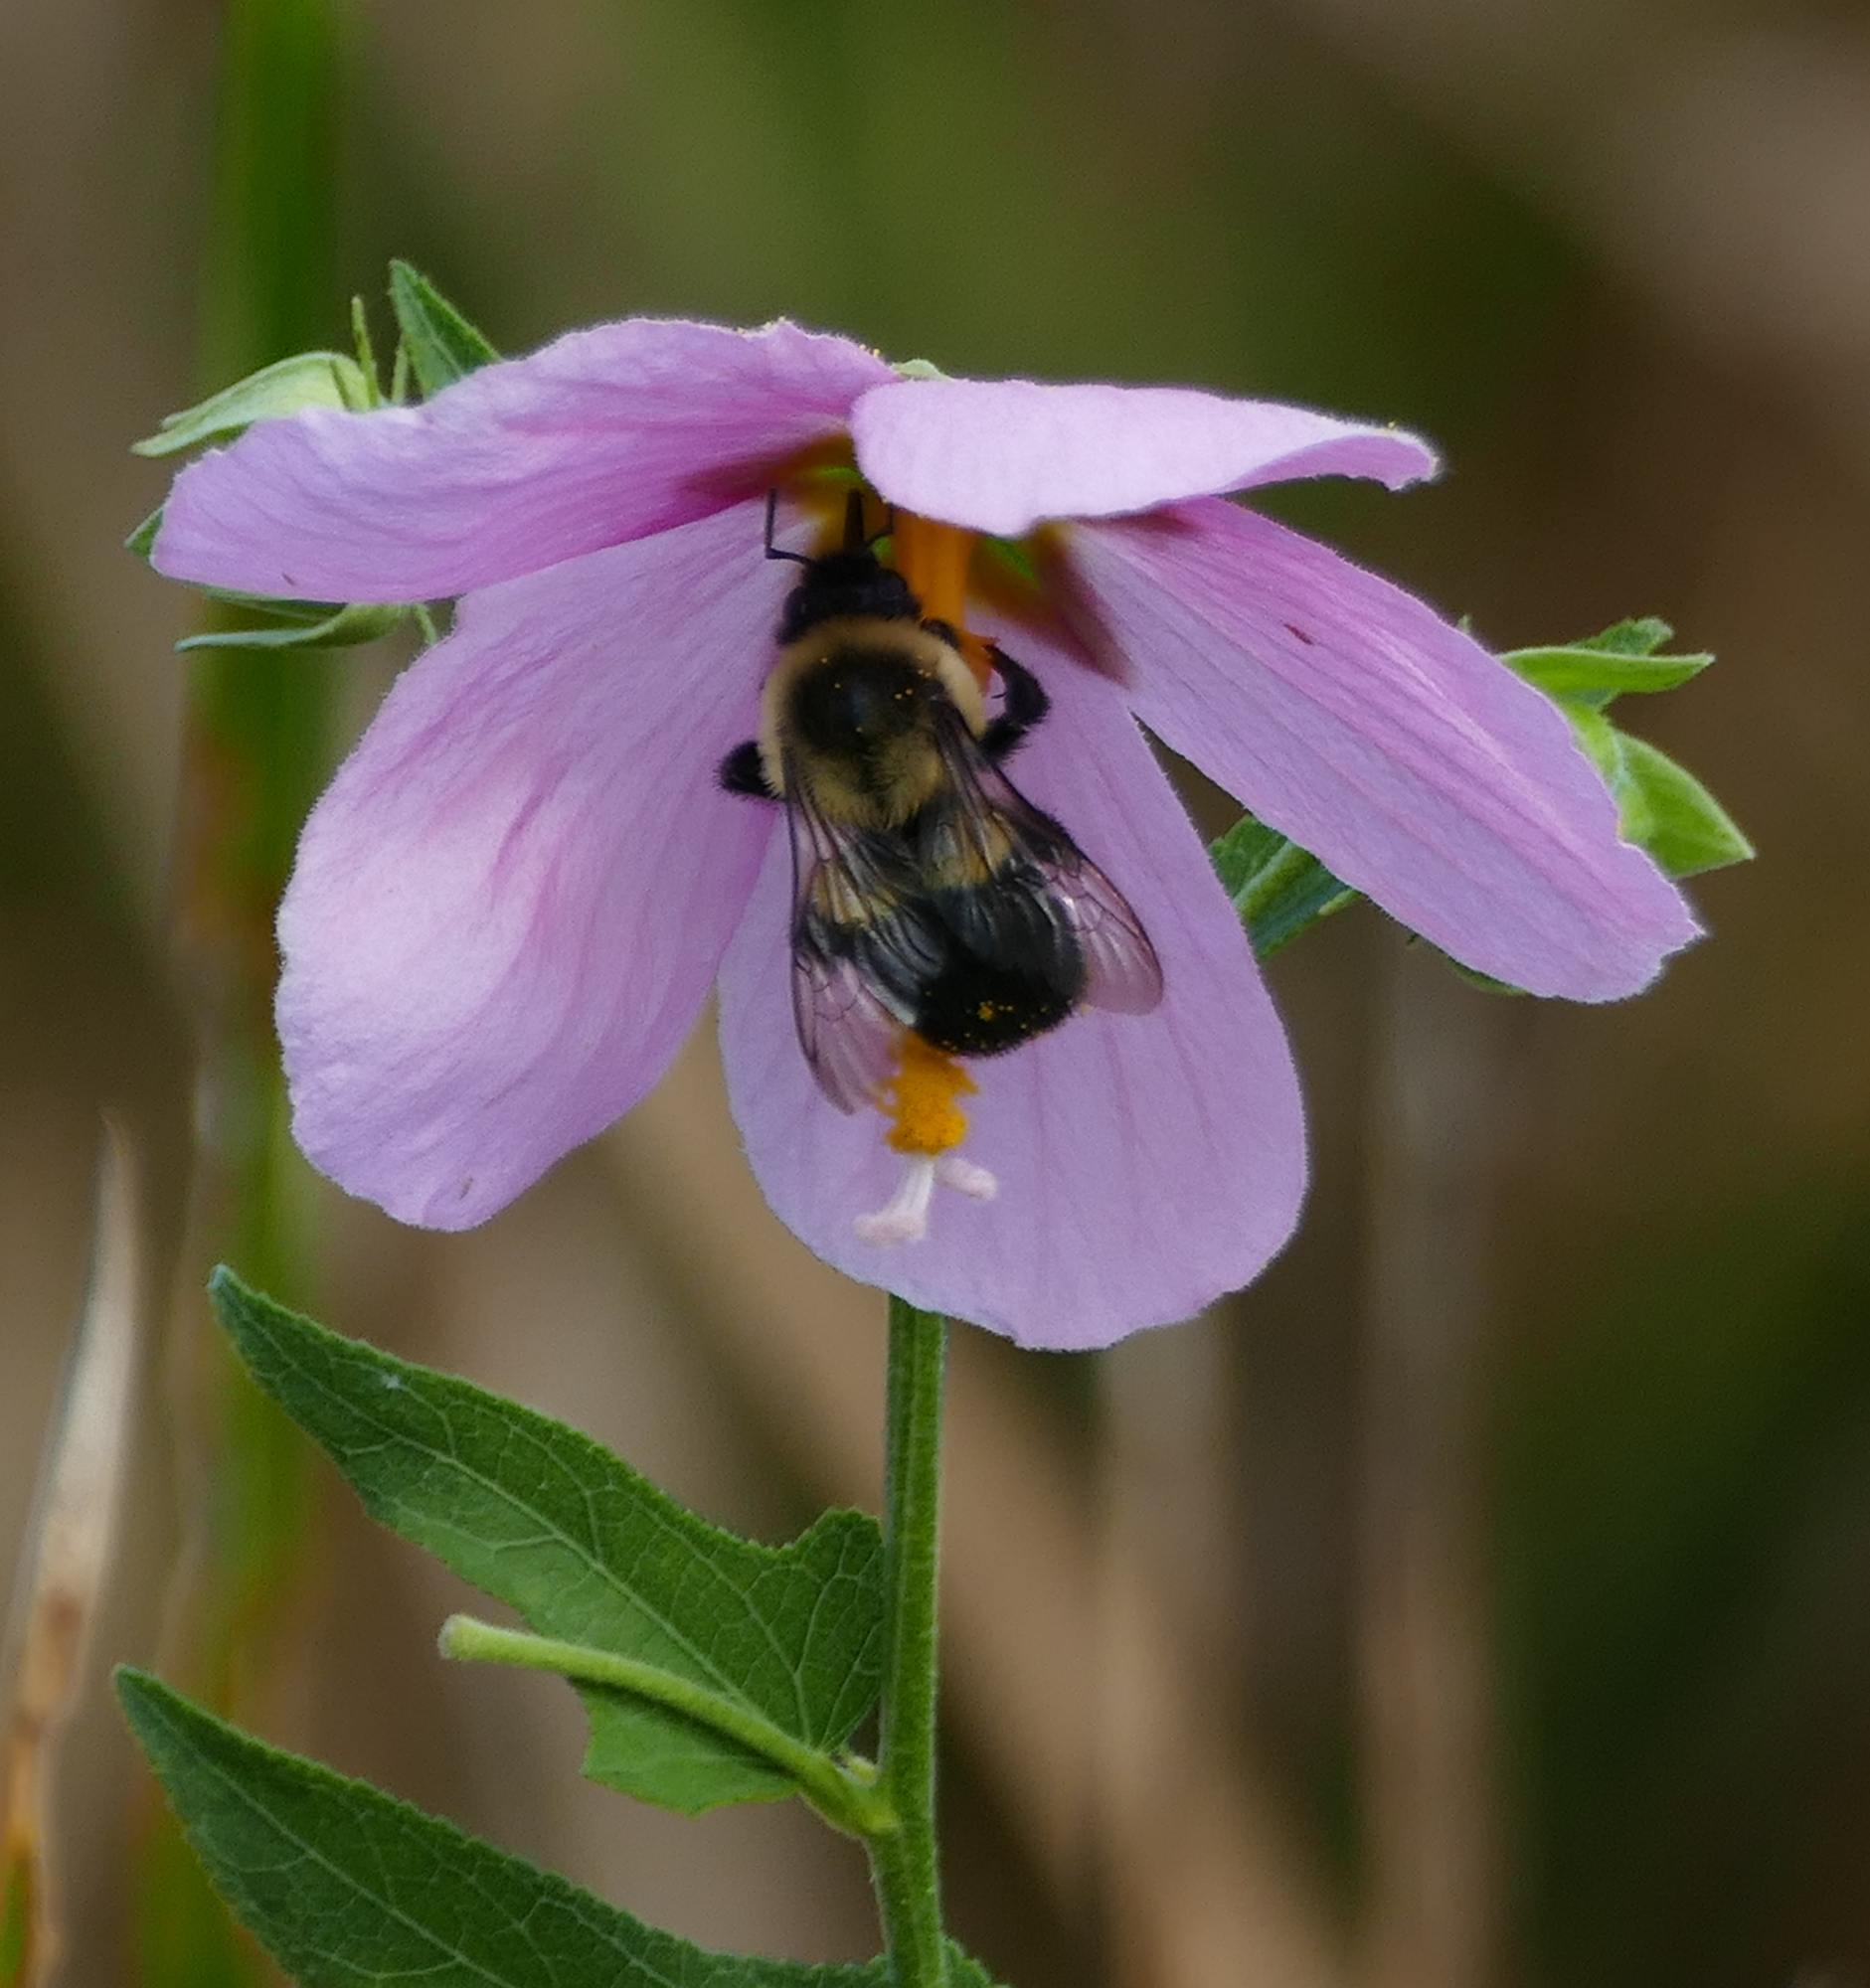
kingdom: Animalia
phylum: Arthropoda
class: Insecta
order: Hymenoptera
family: Apidae
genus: Bombus
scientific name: Bombus impatiens
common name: Common eastern bumble bee
